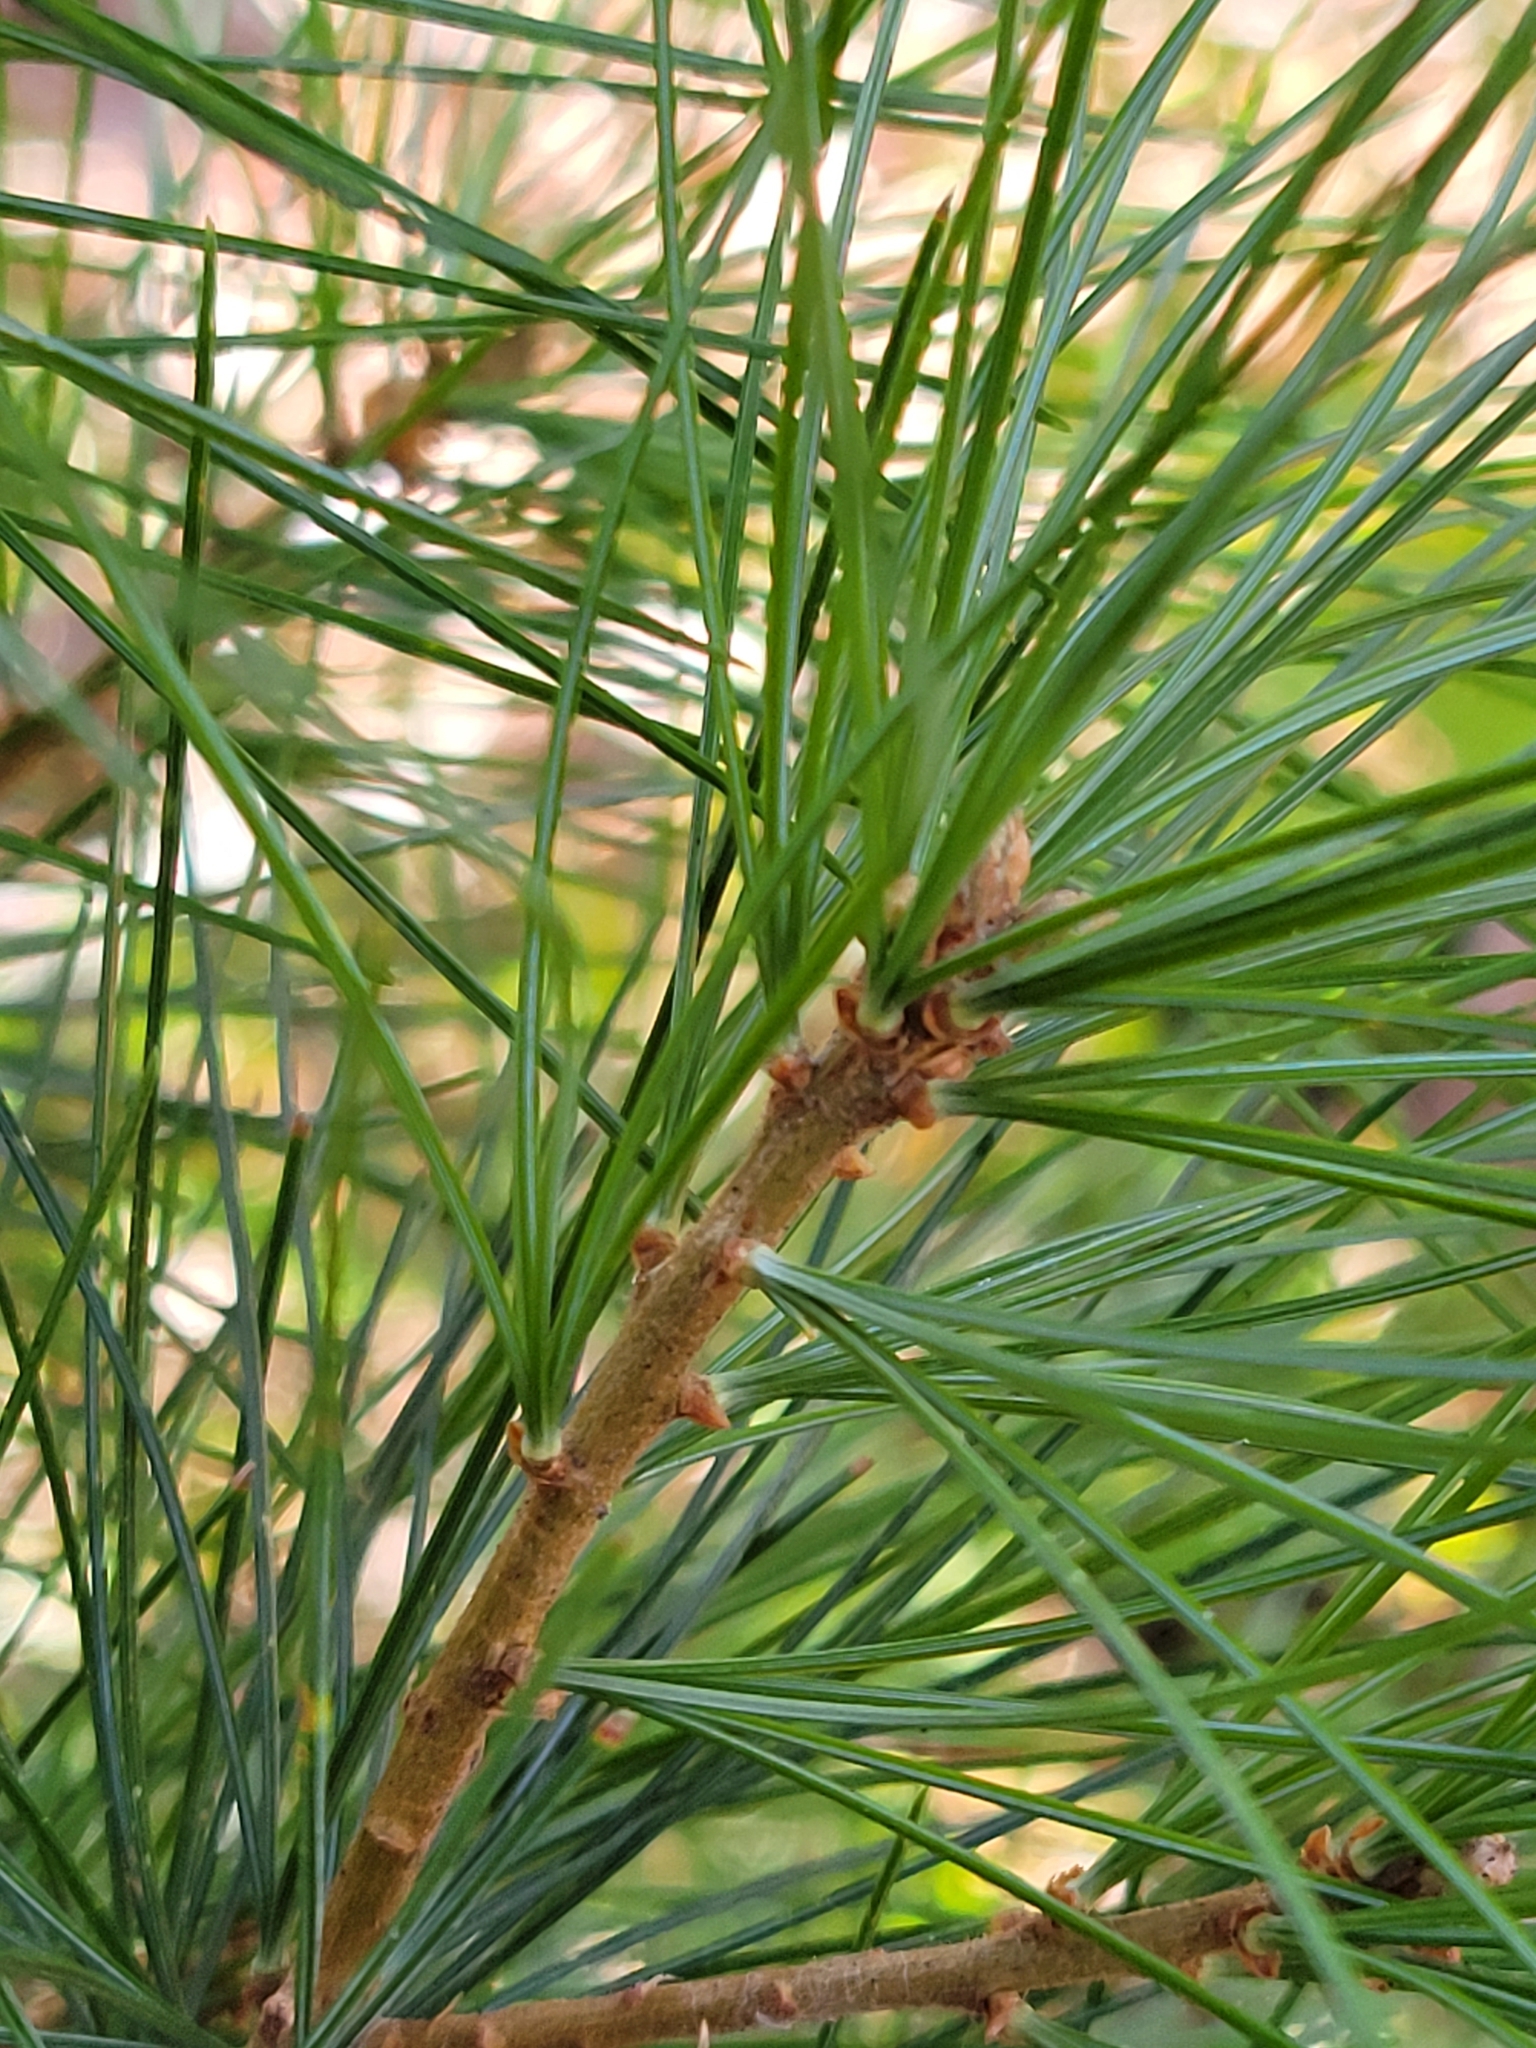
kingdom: Plantae
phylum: Tracheophyta
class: Pinopsida
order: Pinales
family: Pinaceae
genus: Pinus
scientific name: Pinus monticola
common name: Western white pine
